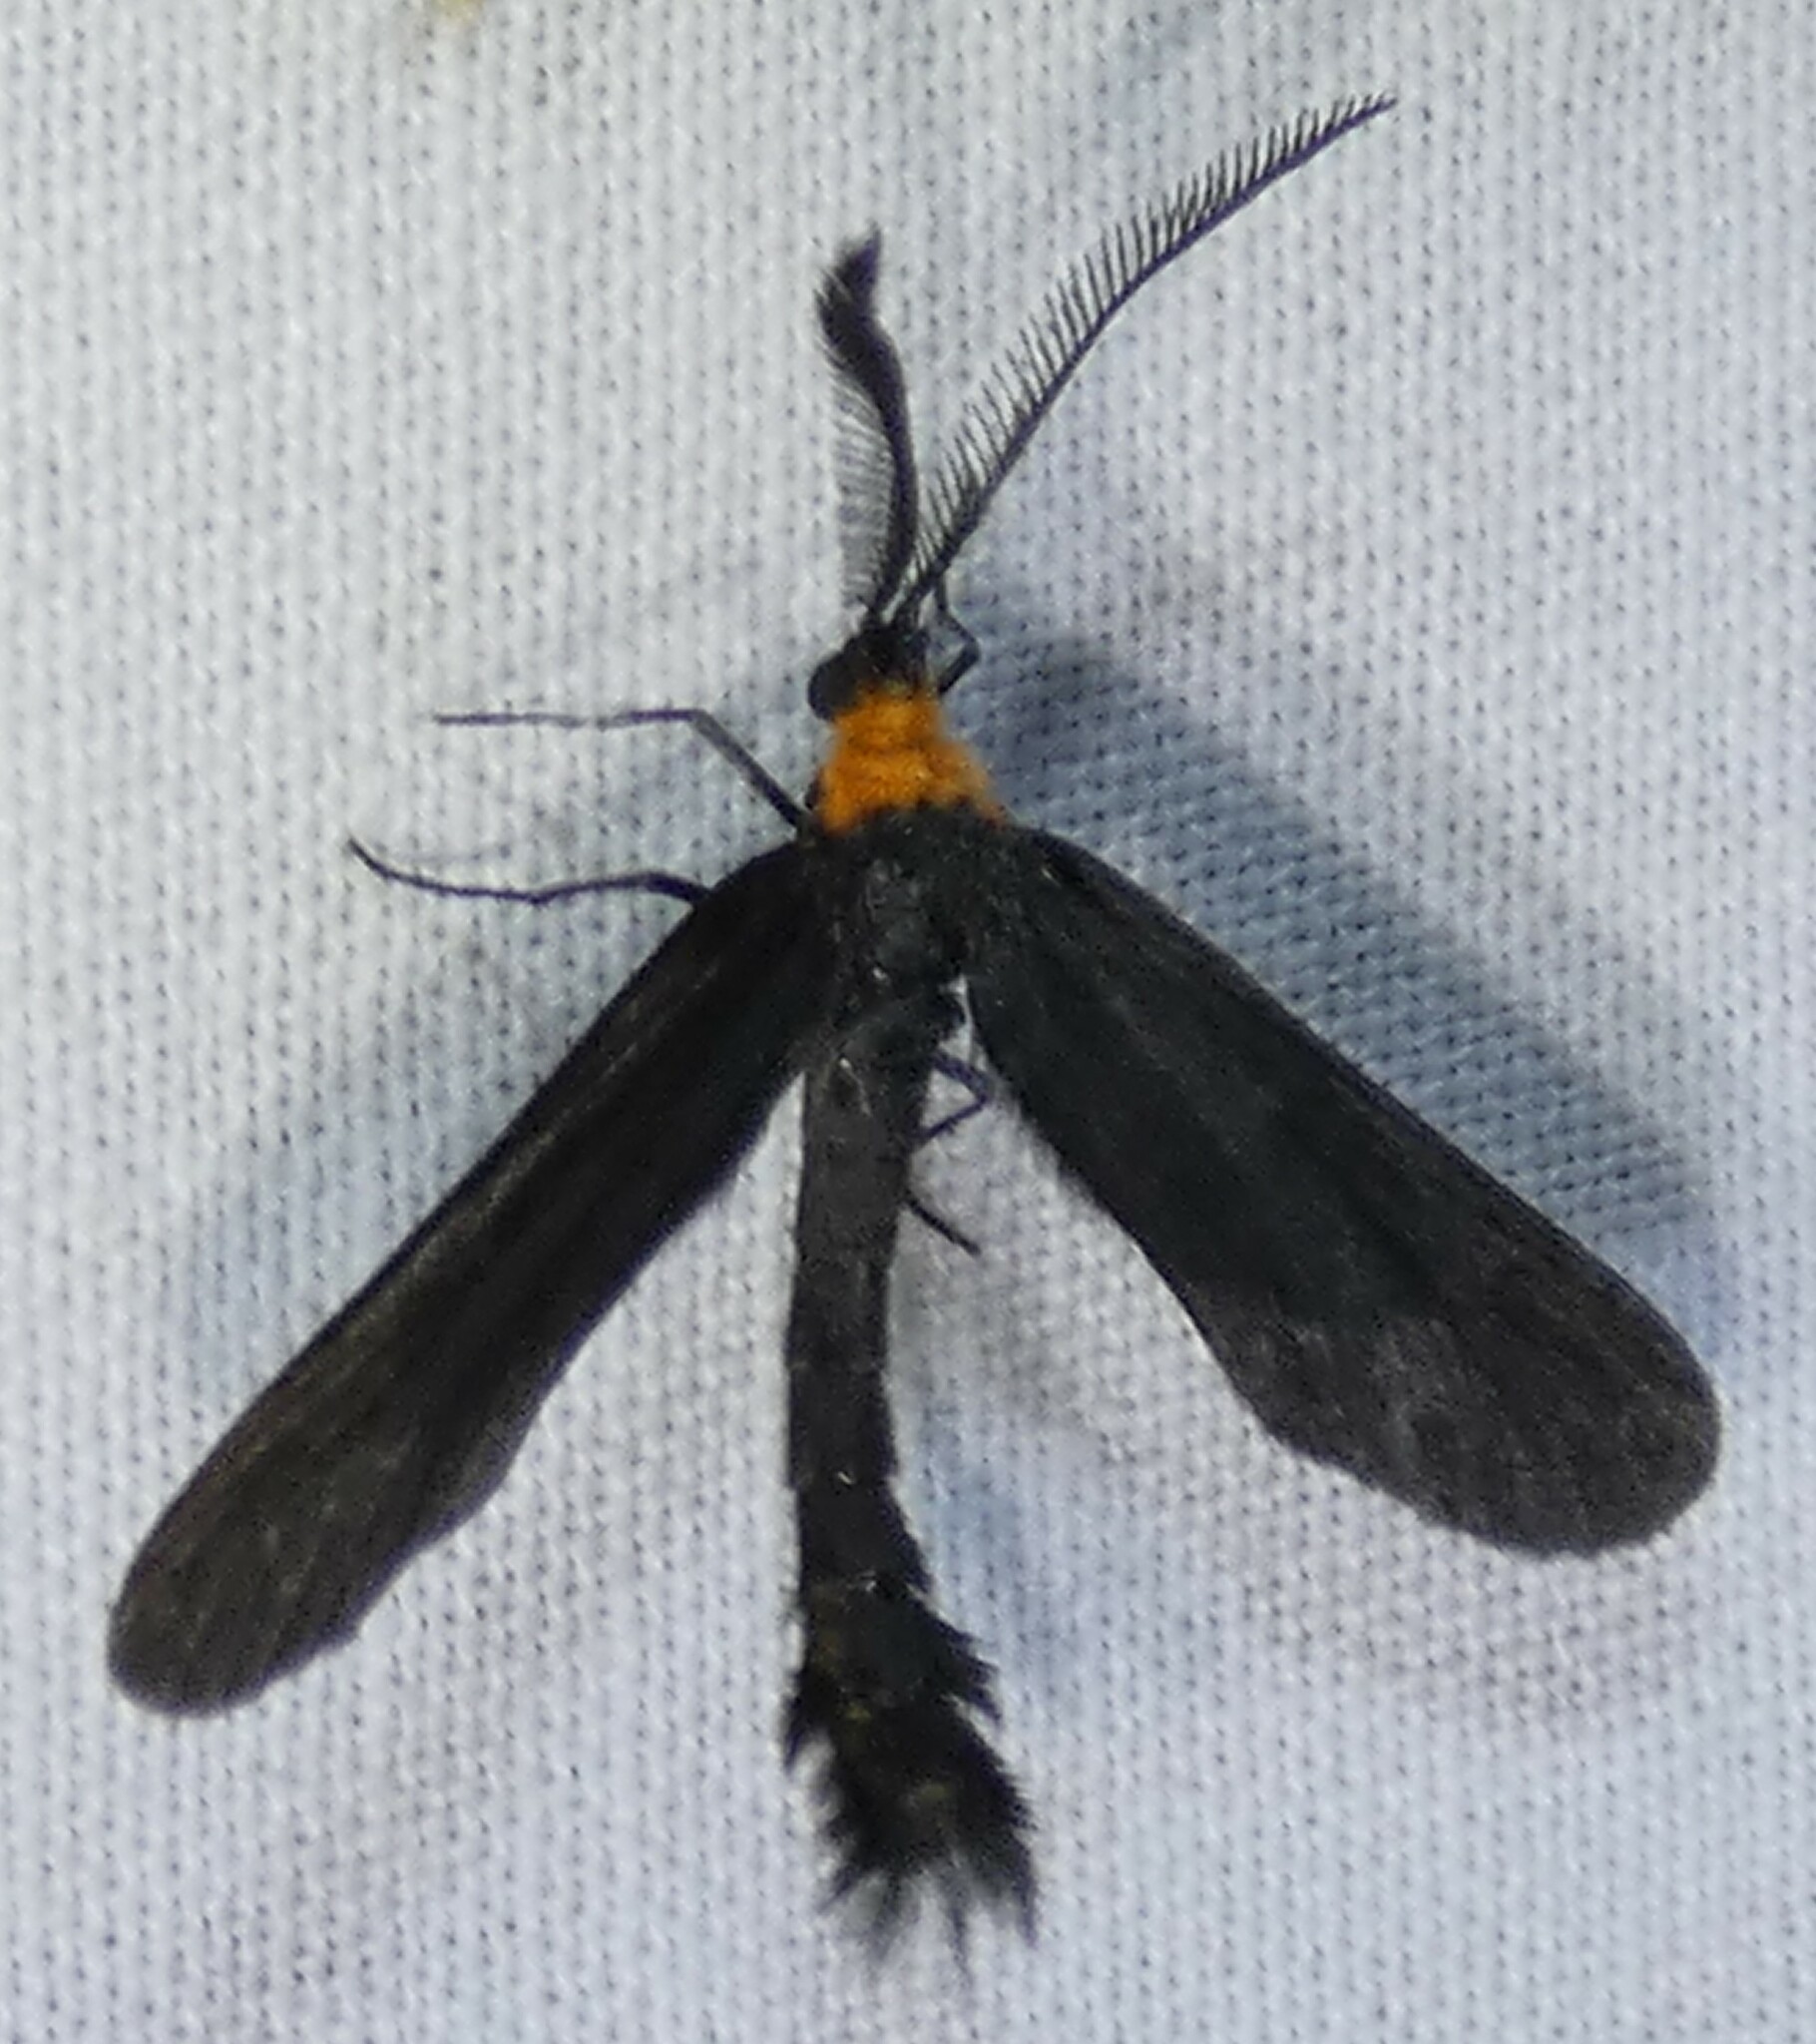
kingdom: Animalia
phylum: Arthropoda
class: Insecta
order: Lepidoptera
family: Zygaenidae
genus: Harrisina
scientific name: Harrisina americana
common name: Grapeleaf skeletonizer moth
